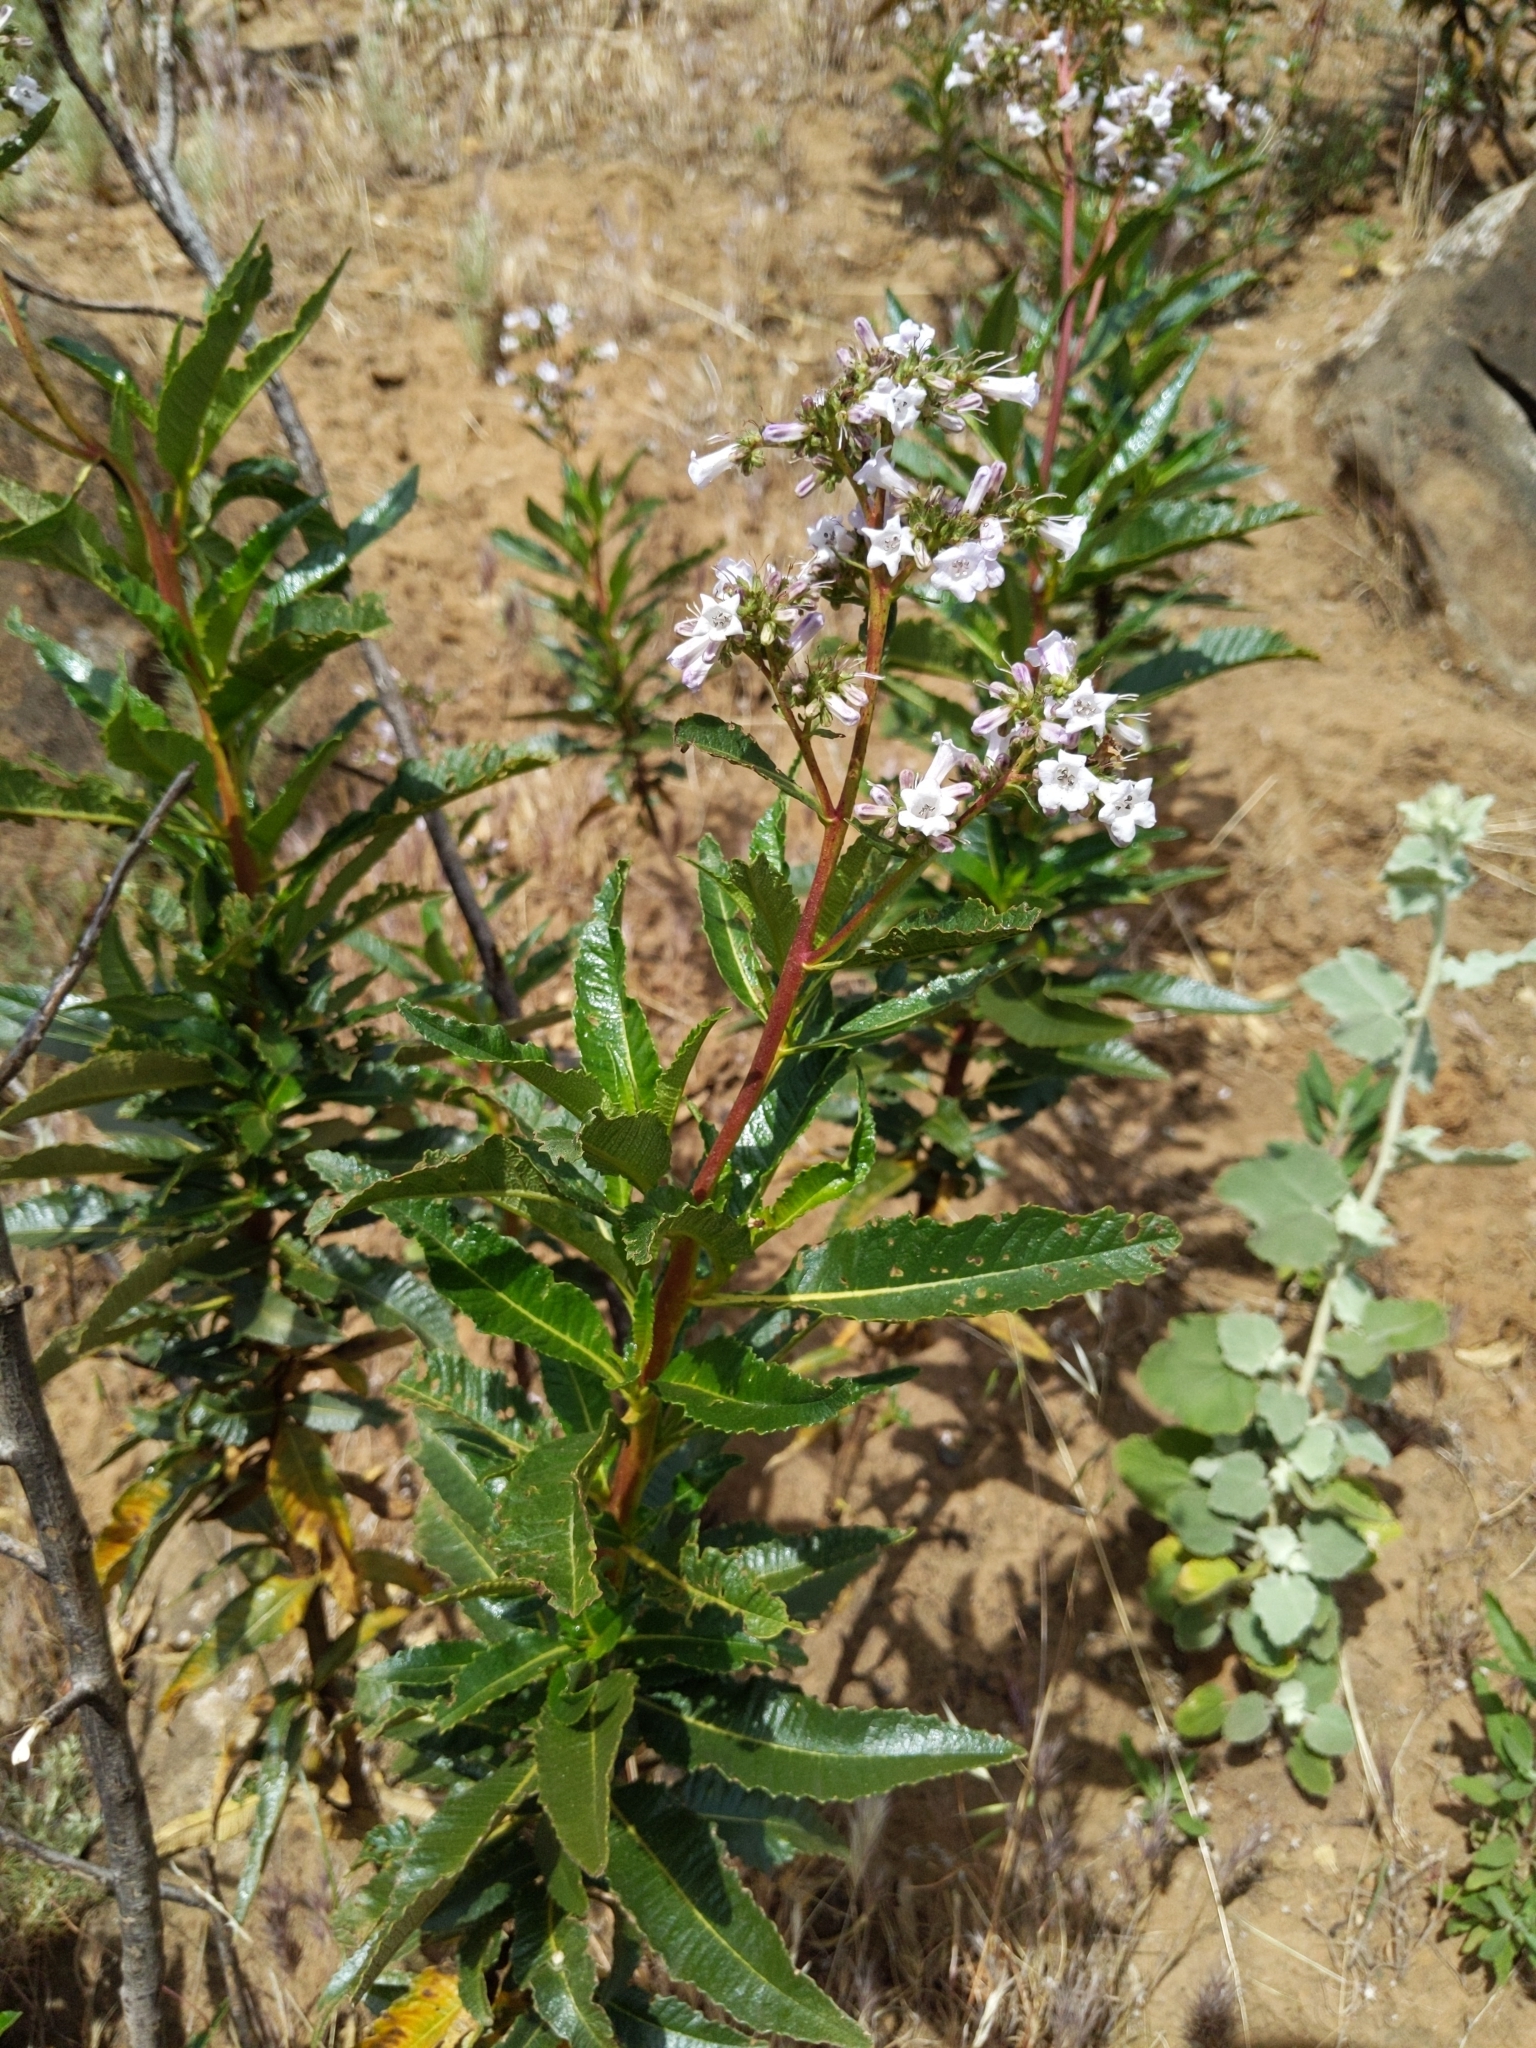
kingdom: Plantae
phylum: Tracheophyta
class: Magnoliopsida
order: Boraginales
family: Namaceae
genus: Eriodictyon
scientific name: Eriodictyon californicum
